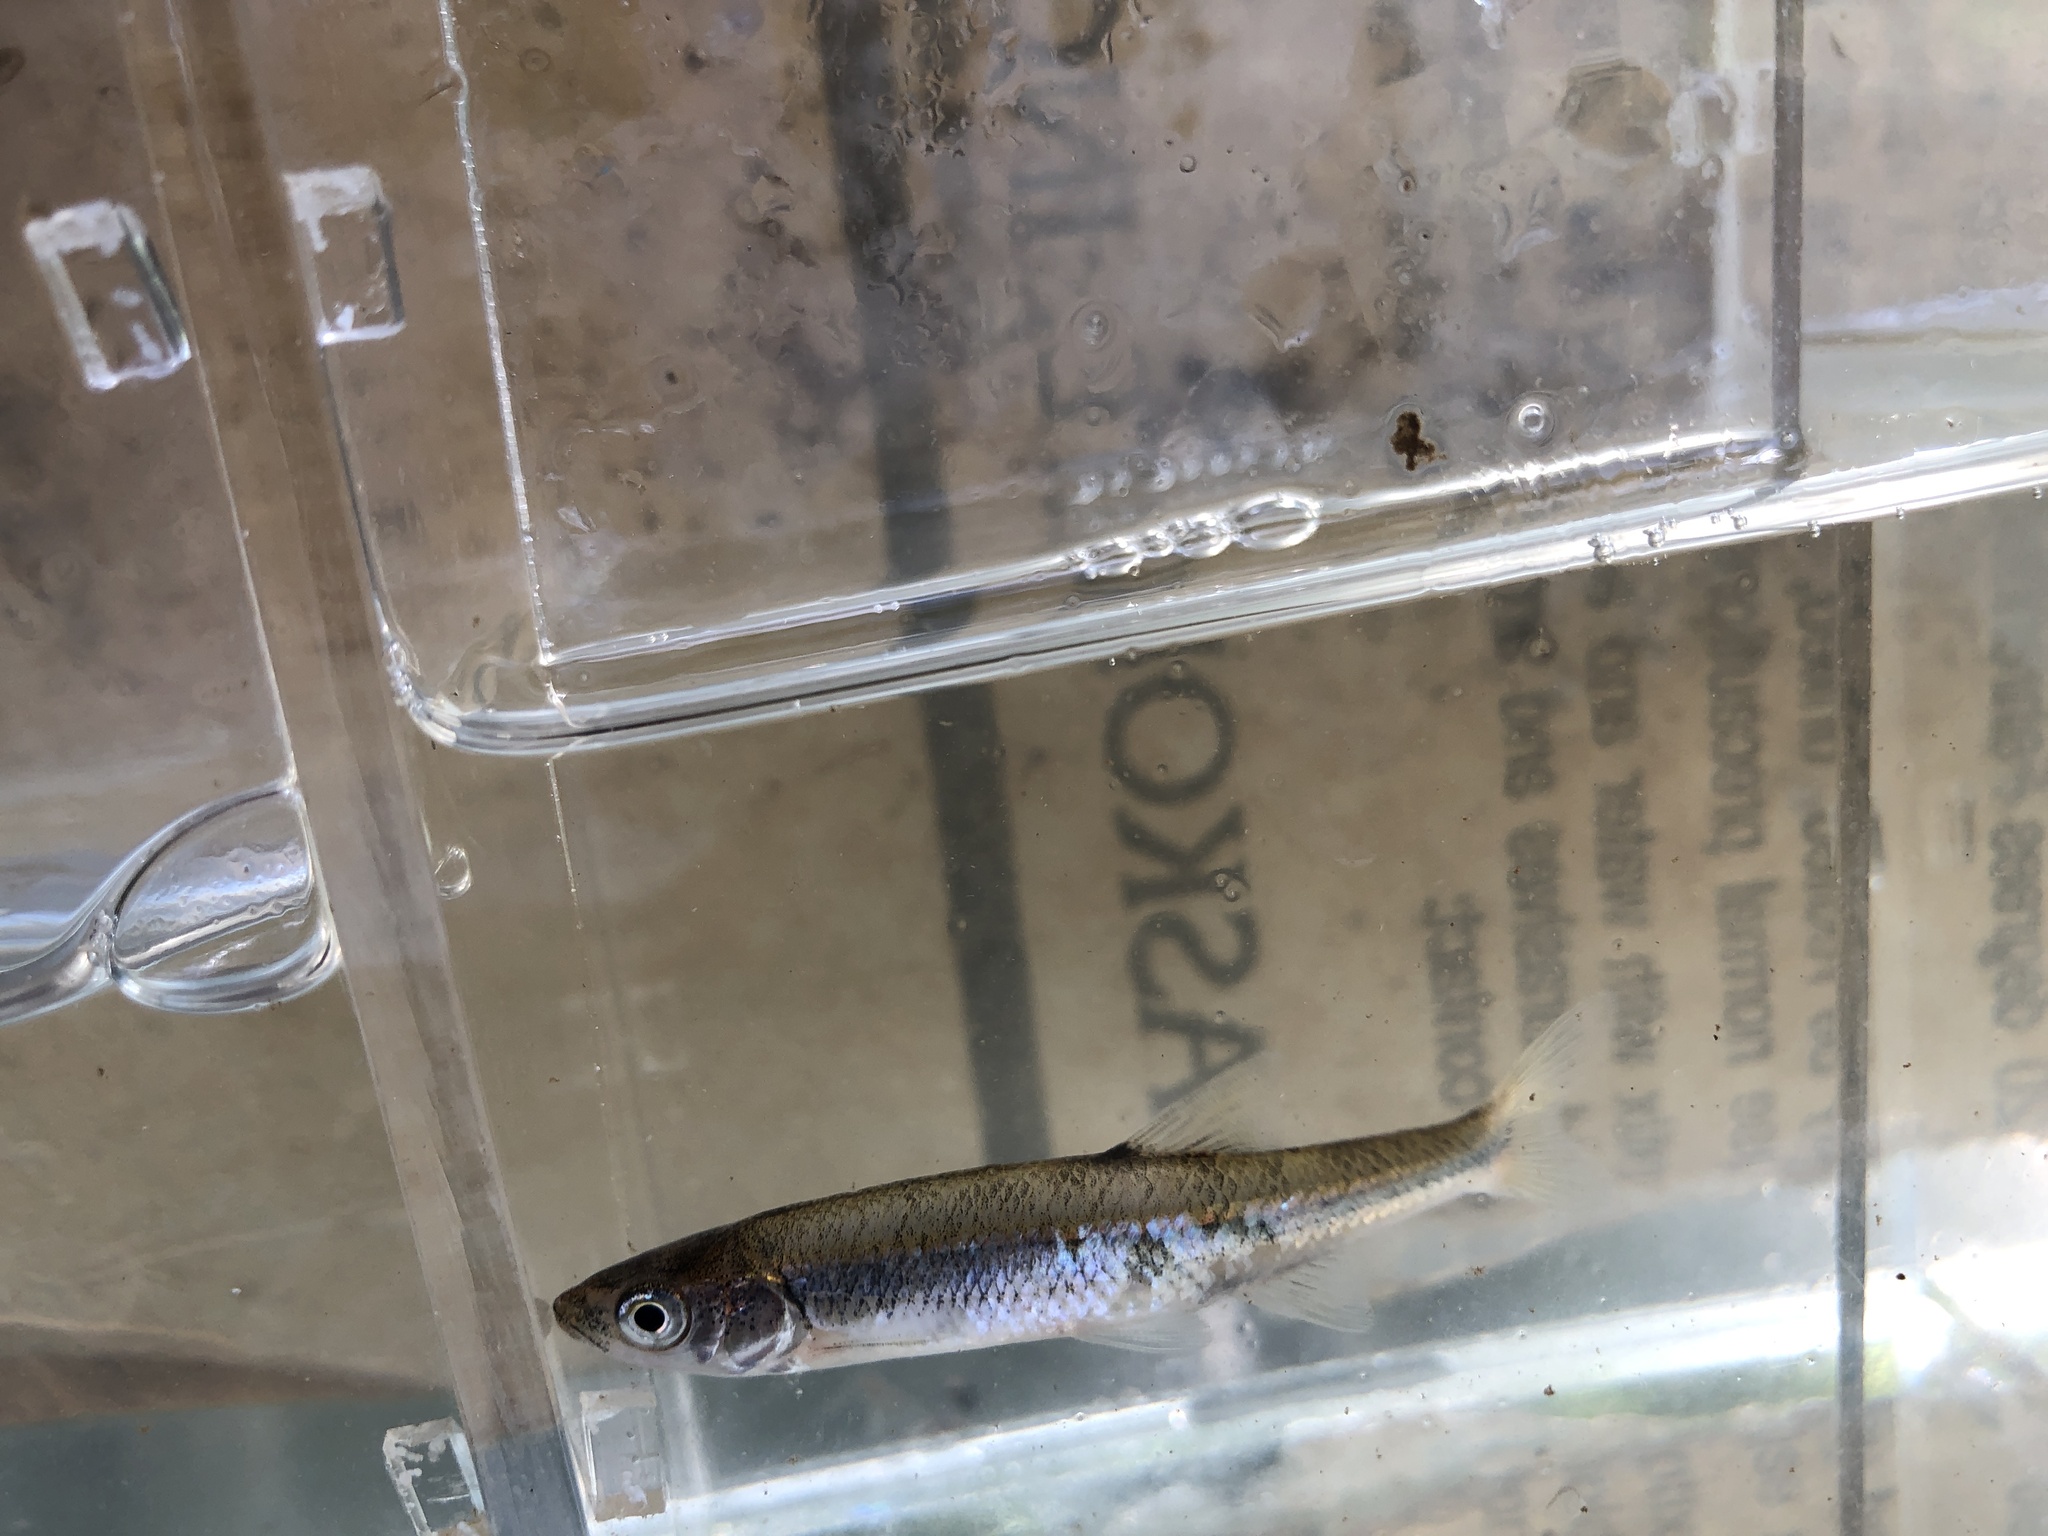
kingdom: Animalia
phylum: Chordata
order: Cypriniformes
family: Cyprinidae
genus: Lythrurus
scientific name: Lythrurus fasciolaris
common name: Scarlet shiner
